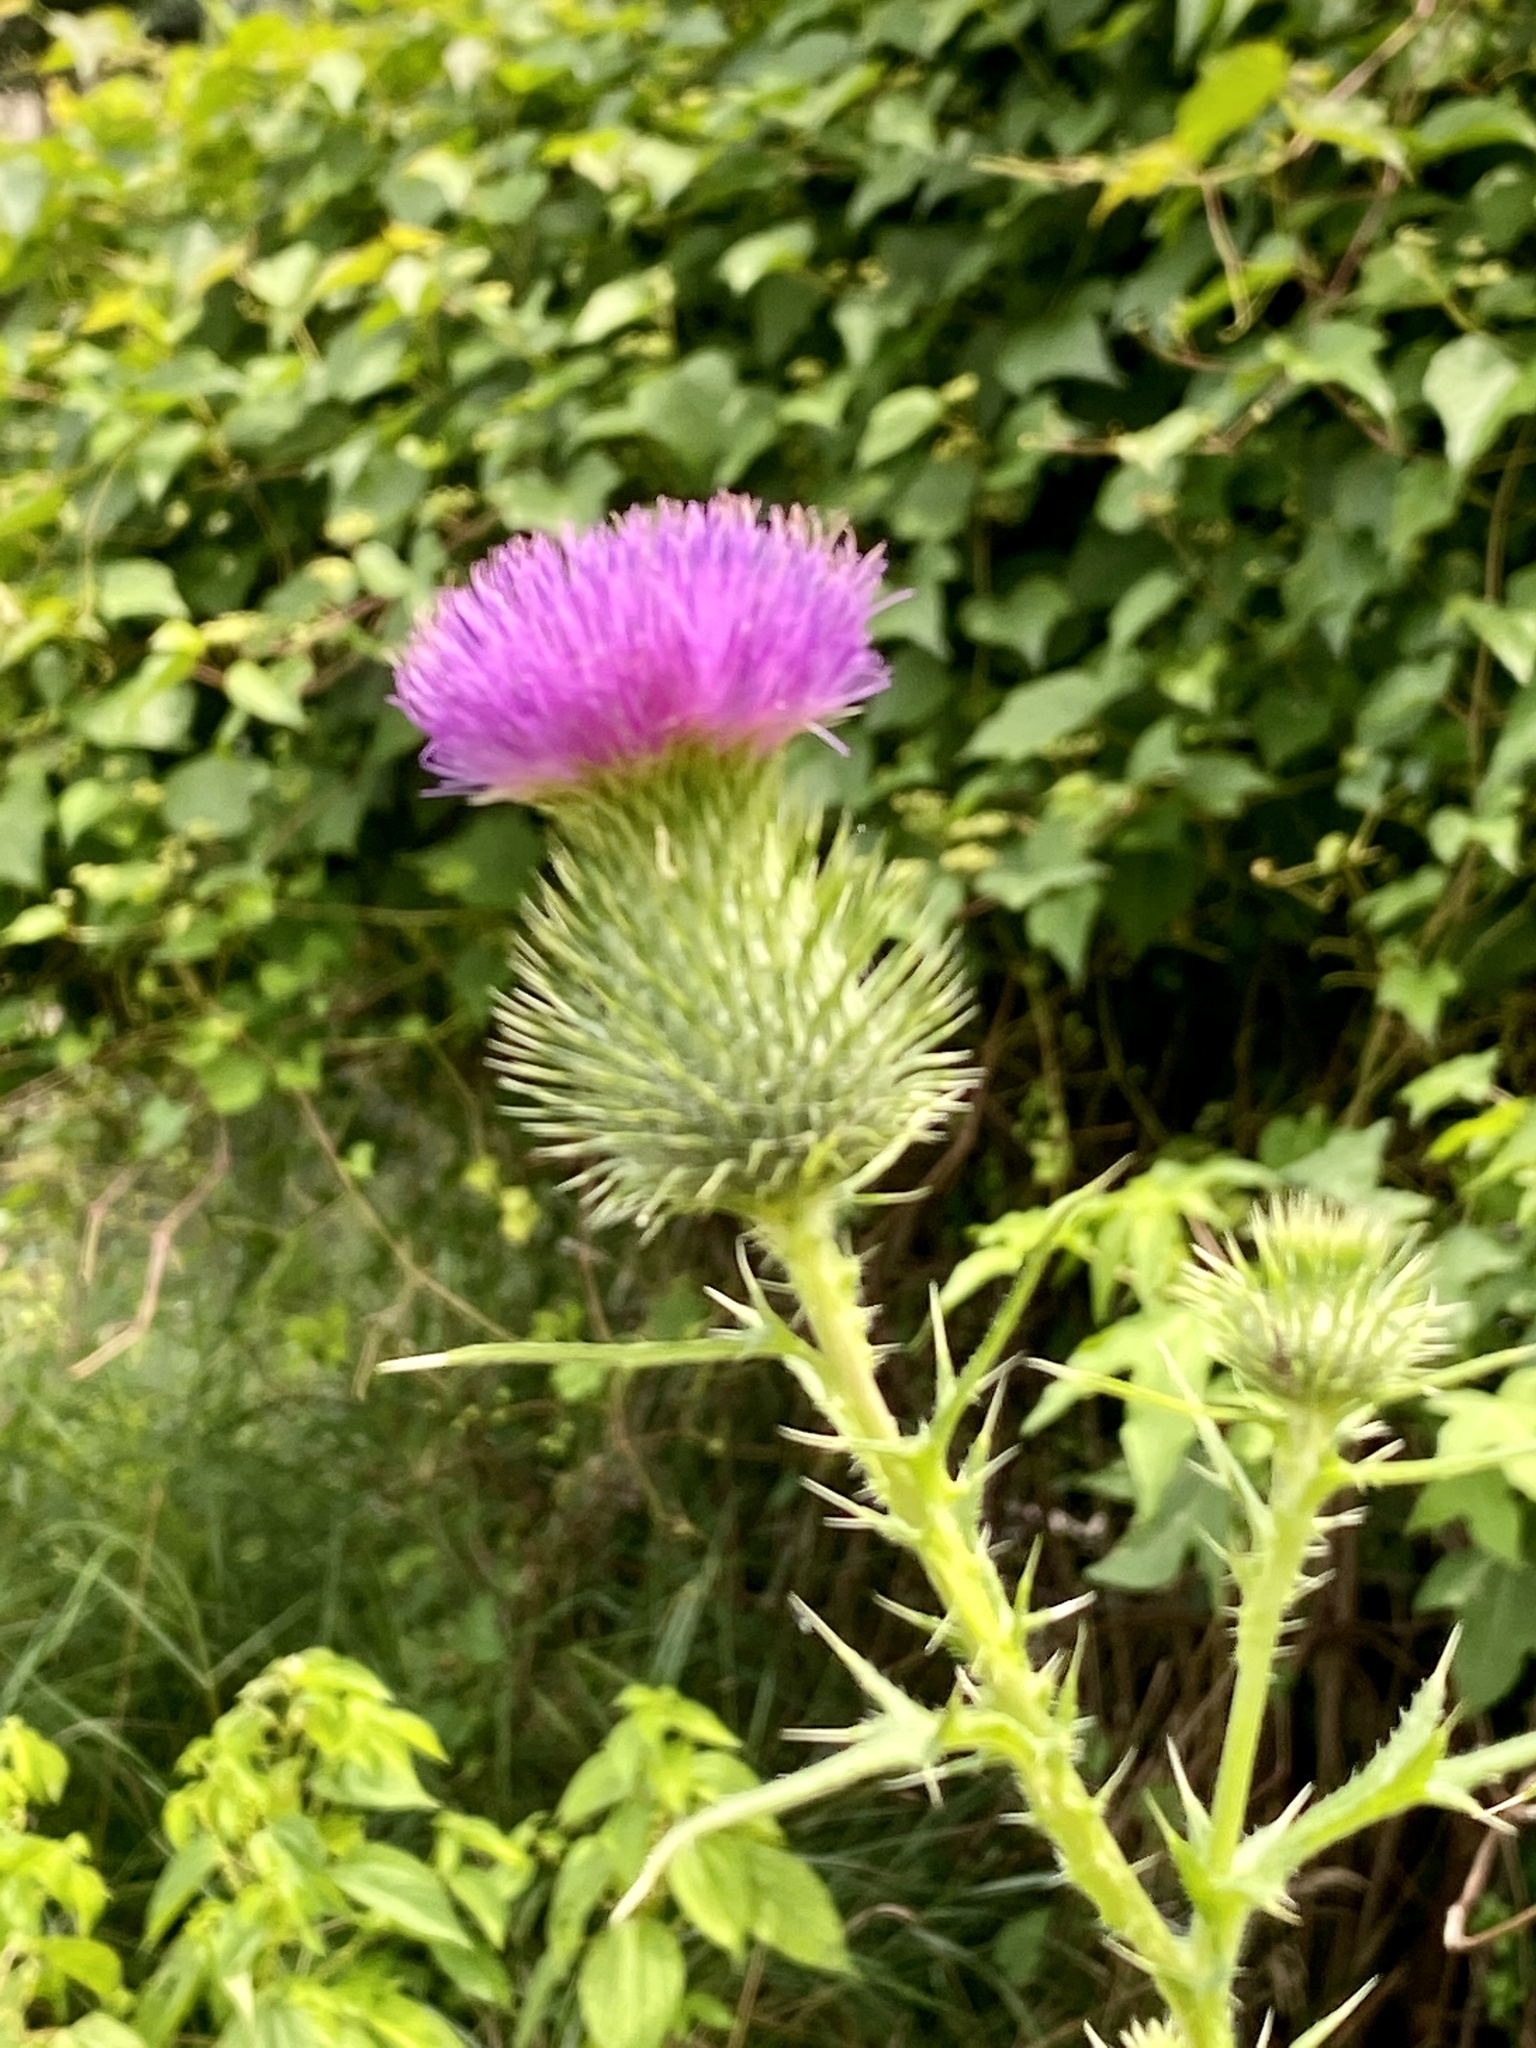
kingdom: Plantae
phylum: Tracheophyta
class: Magnoliopsida
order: Asterales
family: Asteraceae
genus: Cirsium
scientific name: Cirsium vulgare
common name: Bull thistle
